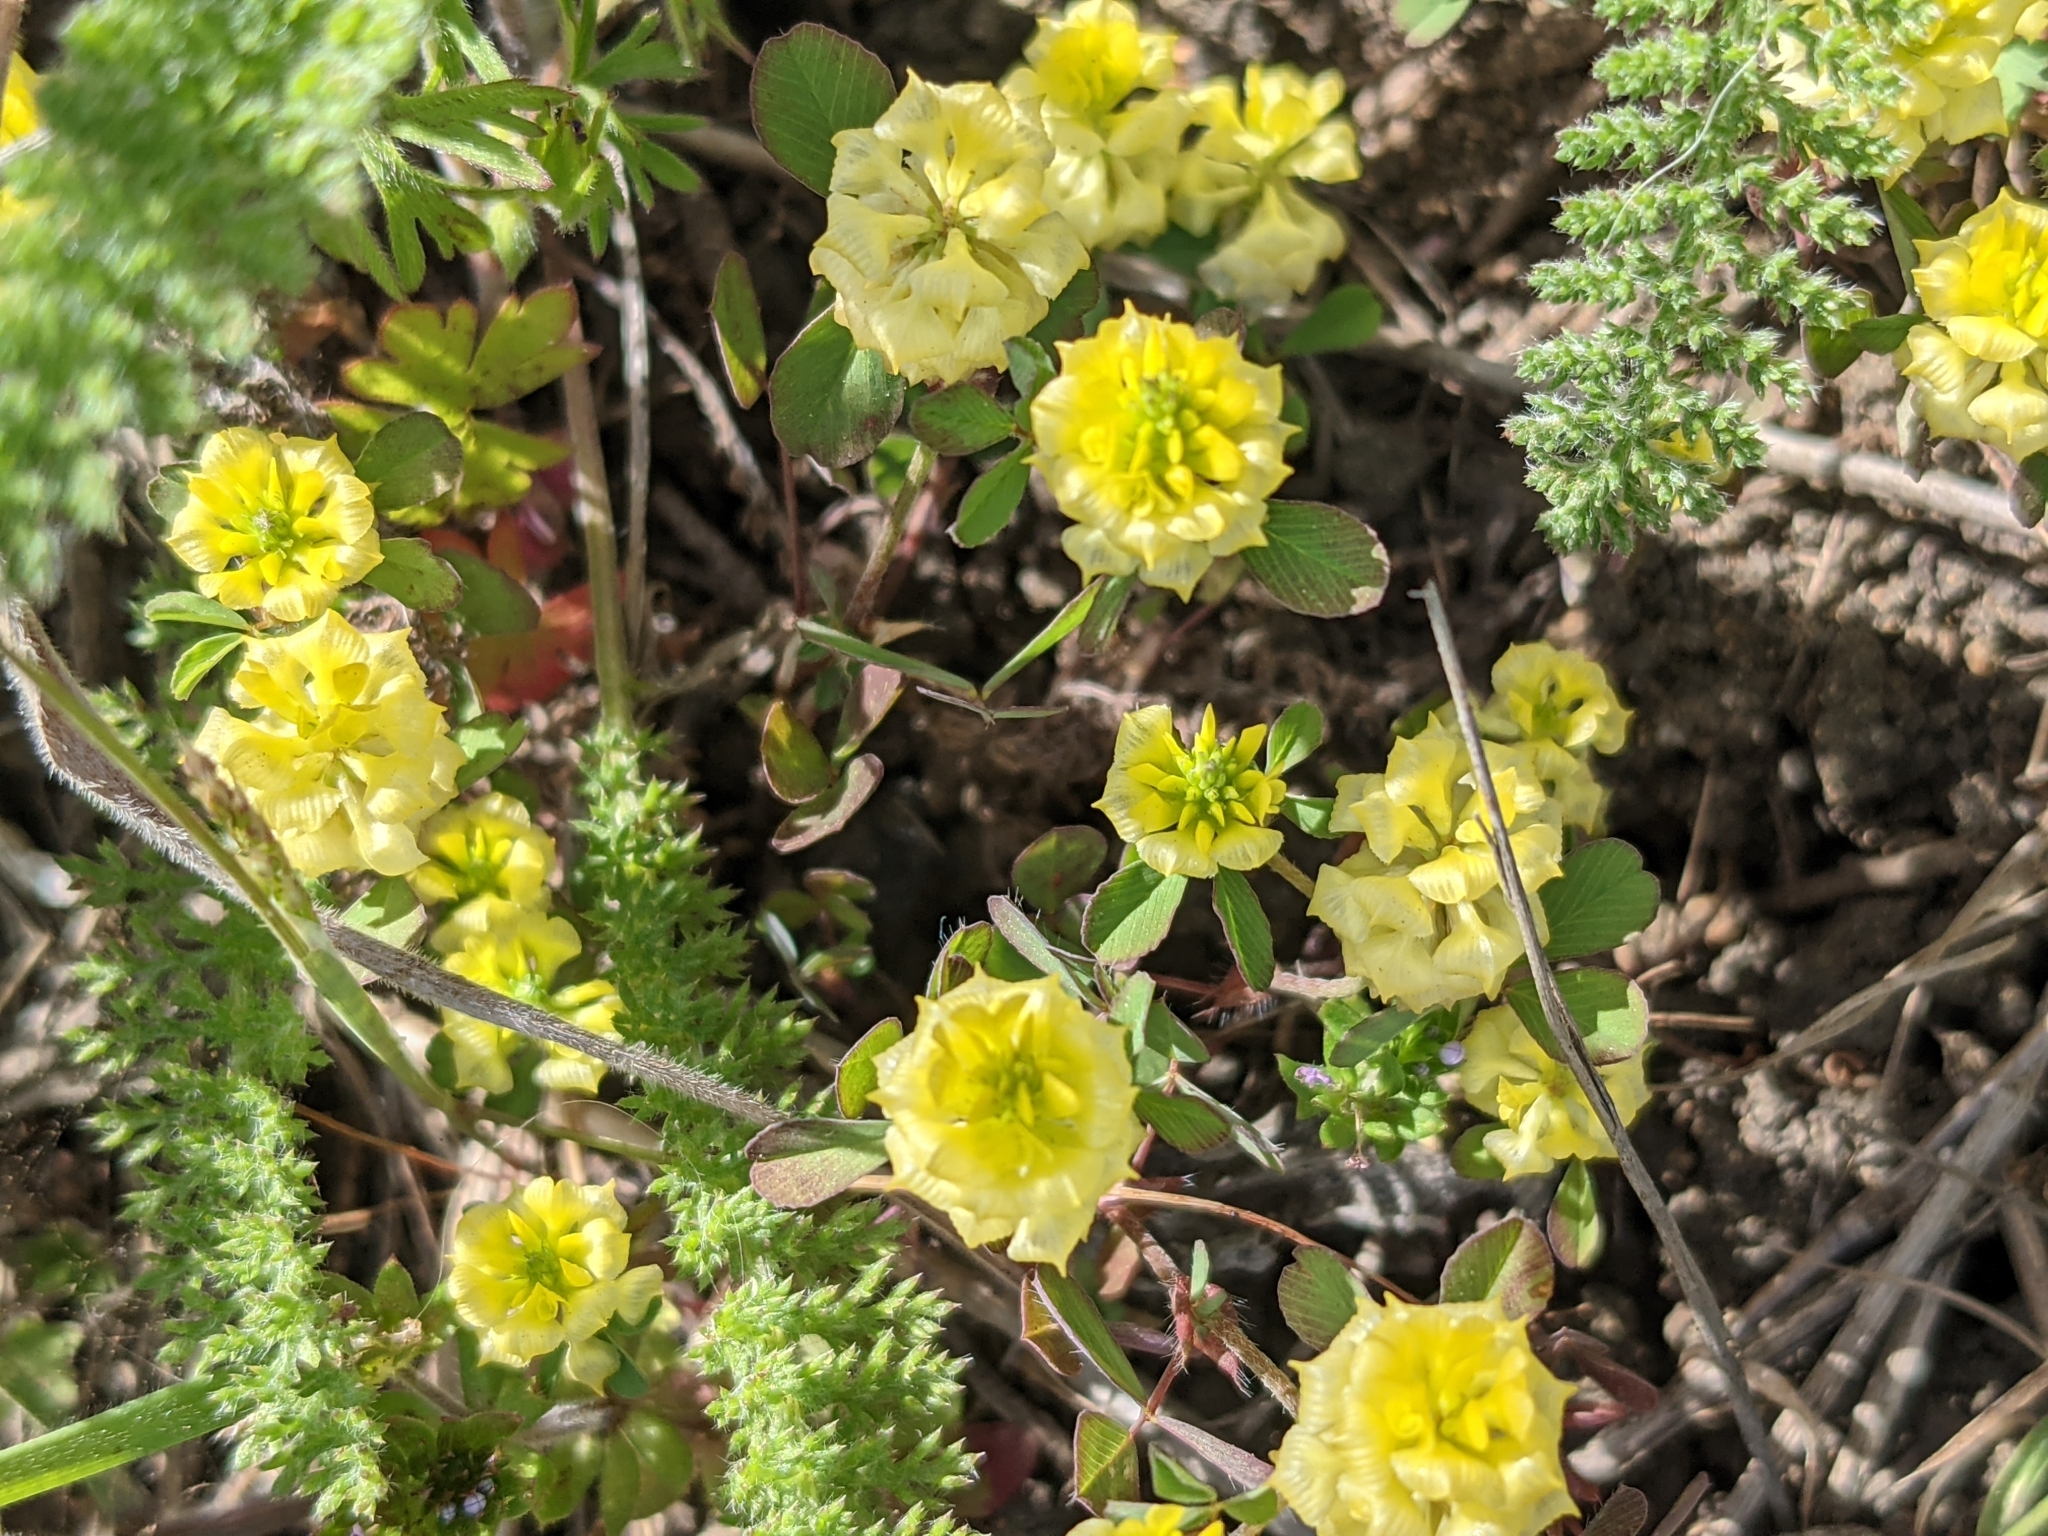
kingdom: Plantae
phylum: Tracheophyta
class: Magnoliopsida
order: Fabales
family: Fabaceae
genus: Trifolium
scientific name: Trifolium campestre
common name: Field clover
